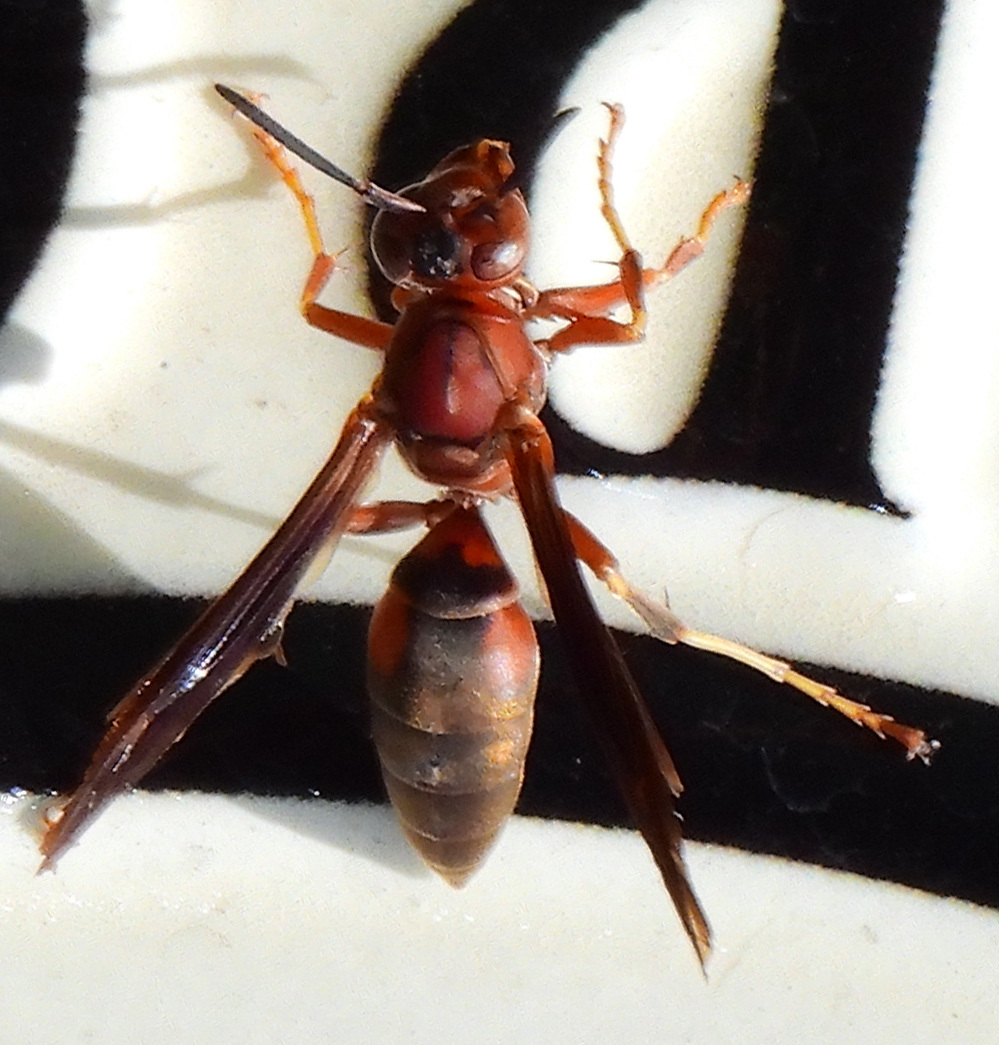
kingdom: Animalia
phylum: Arthropoda
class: Insecta
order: Hymenoptera
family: Eumenidae
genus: Polistes
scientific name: Polistes metricus
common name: Metric paper wasp
